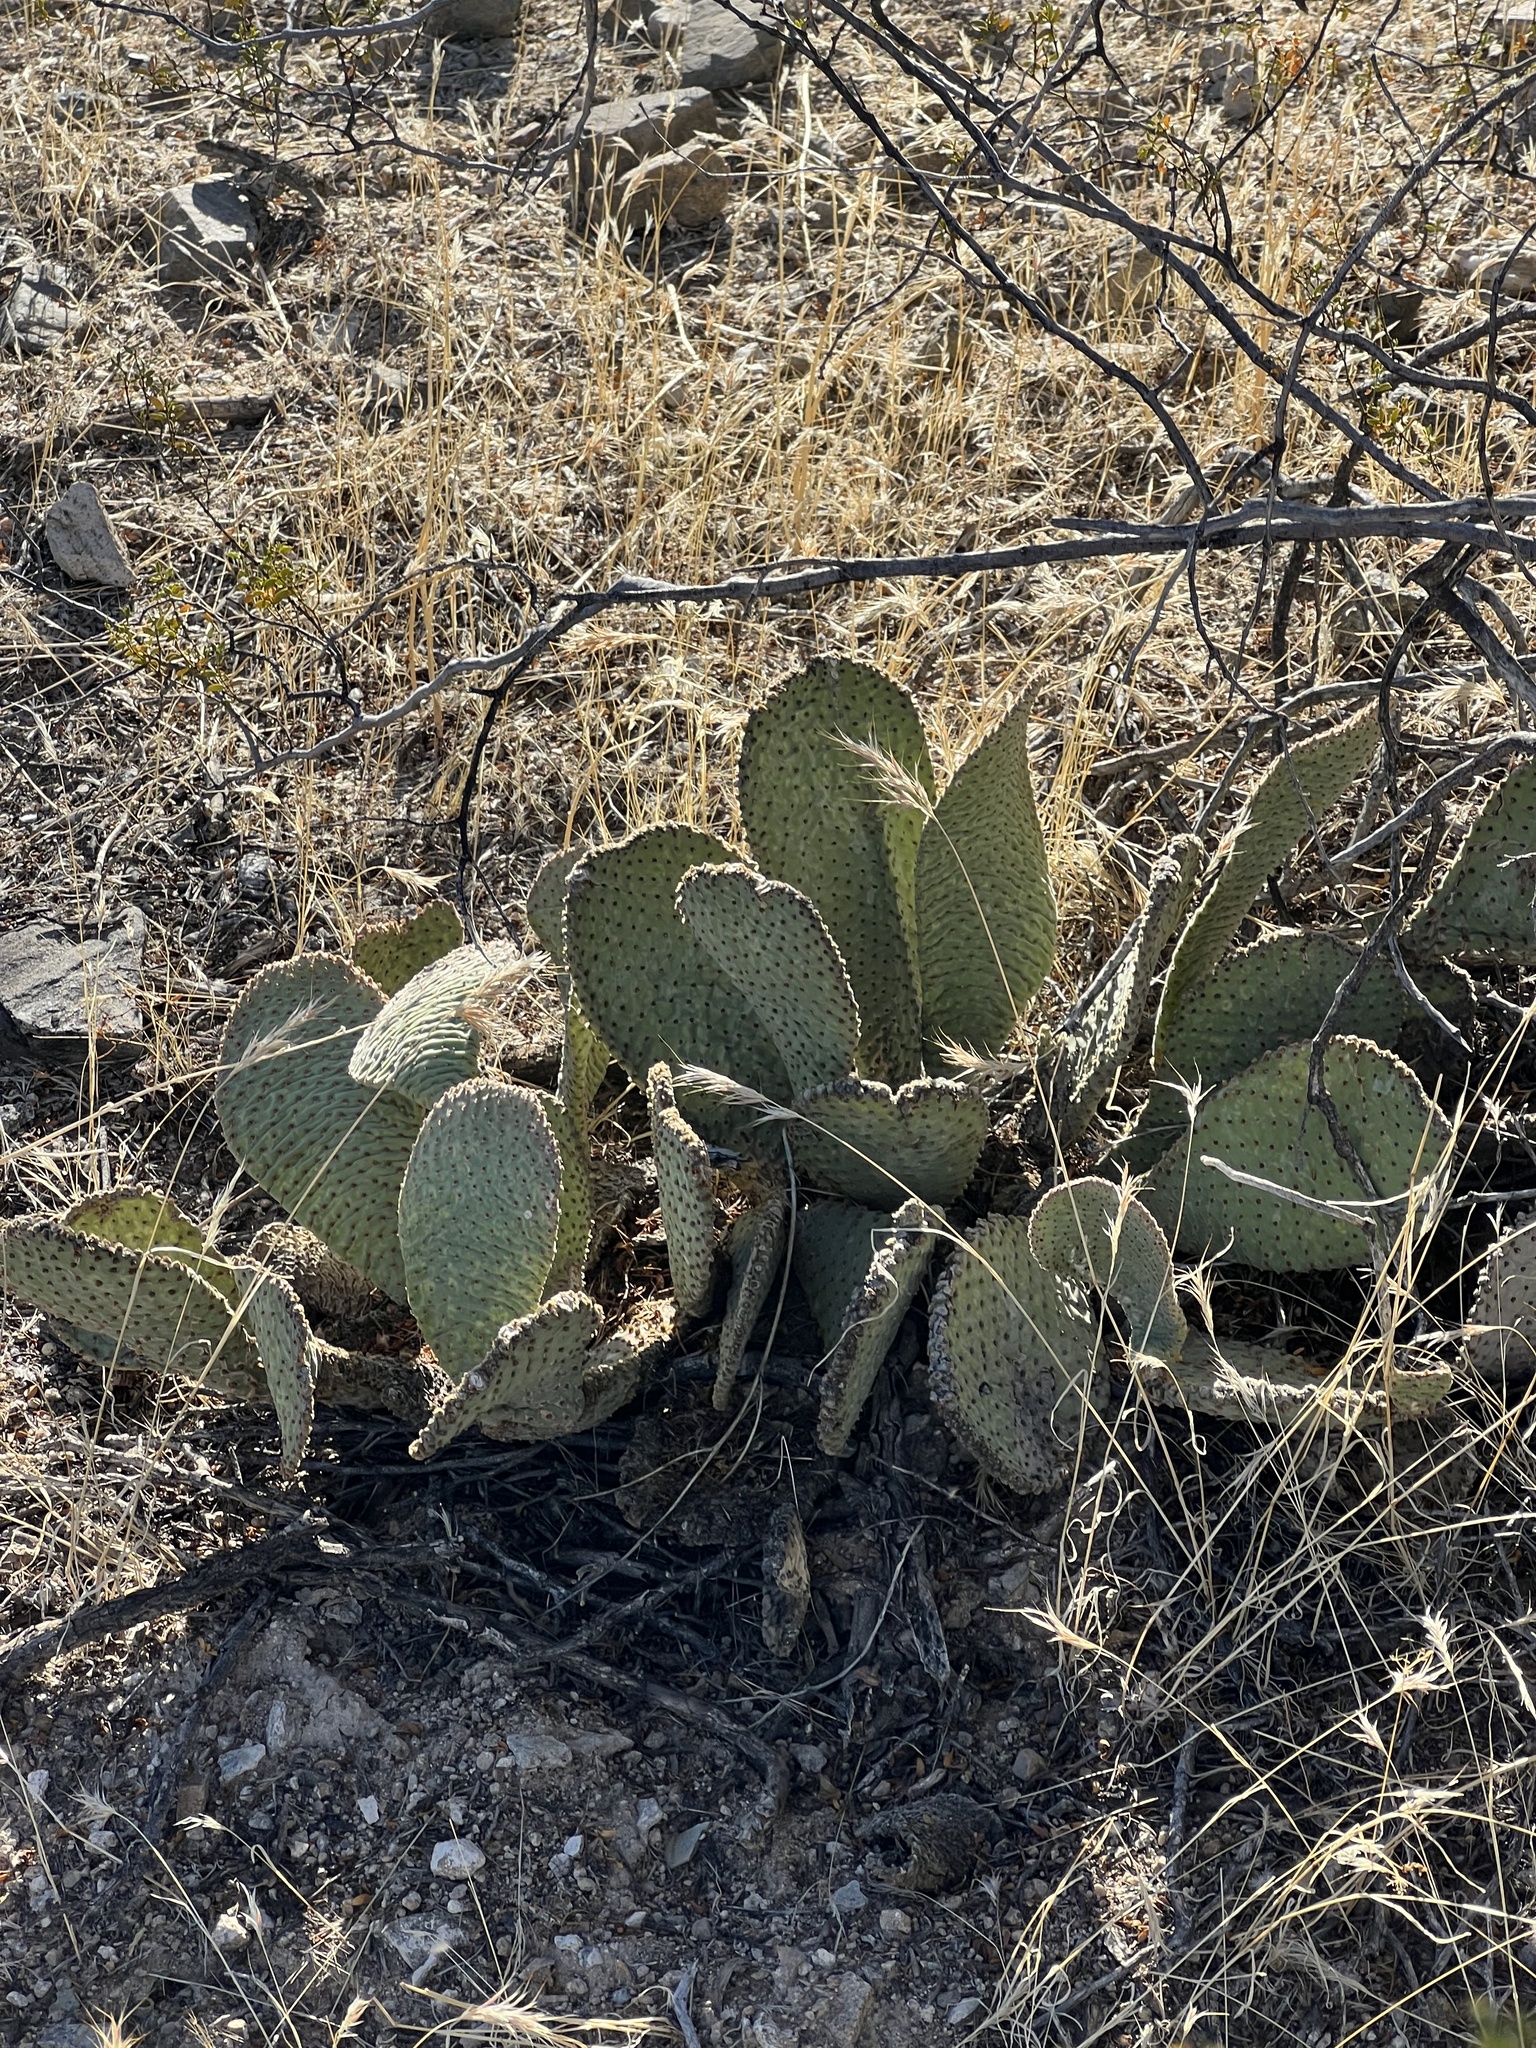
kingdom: Plantae
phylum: Tracheophyta
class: Magnoliopsida
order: Caryophyllales
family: Cactaceae
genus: Opuntia
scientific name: Opuntia basilaris
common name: Beavertail prickly-pear
